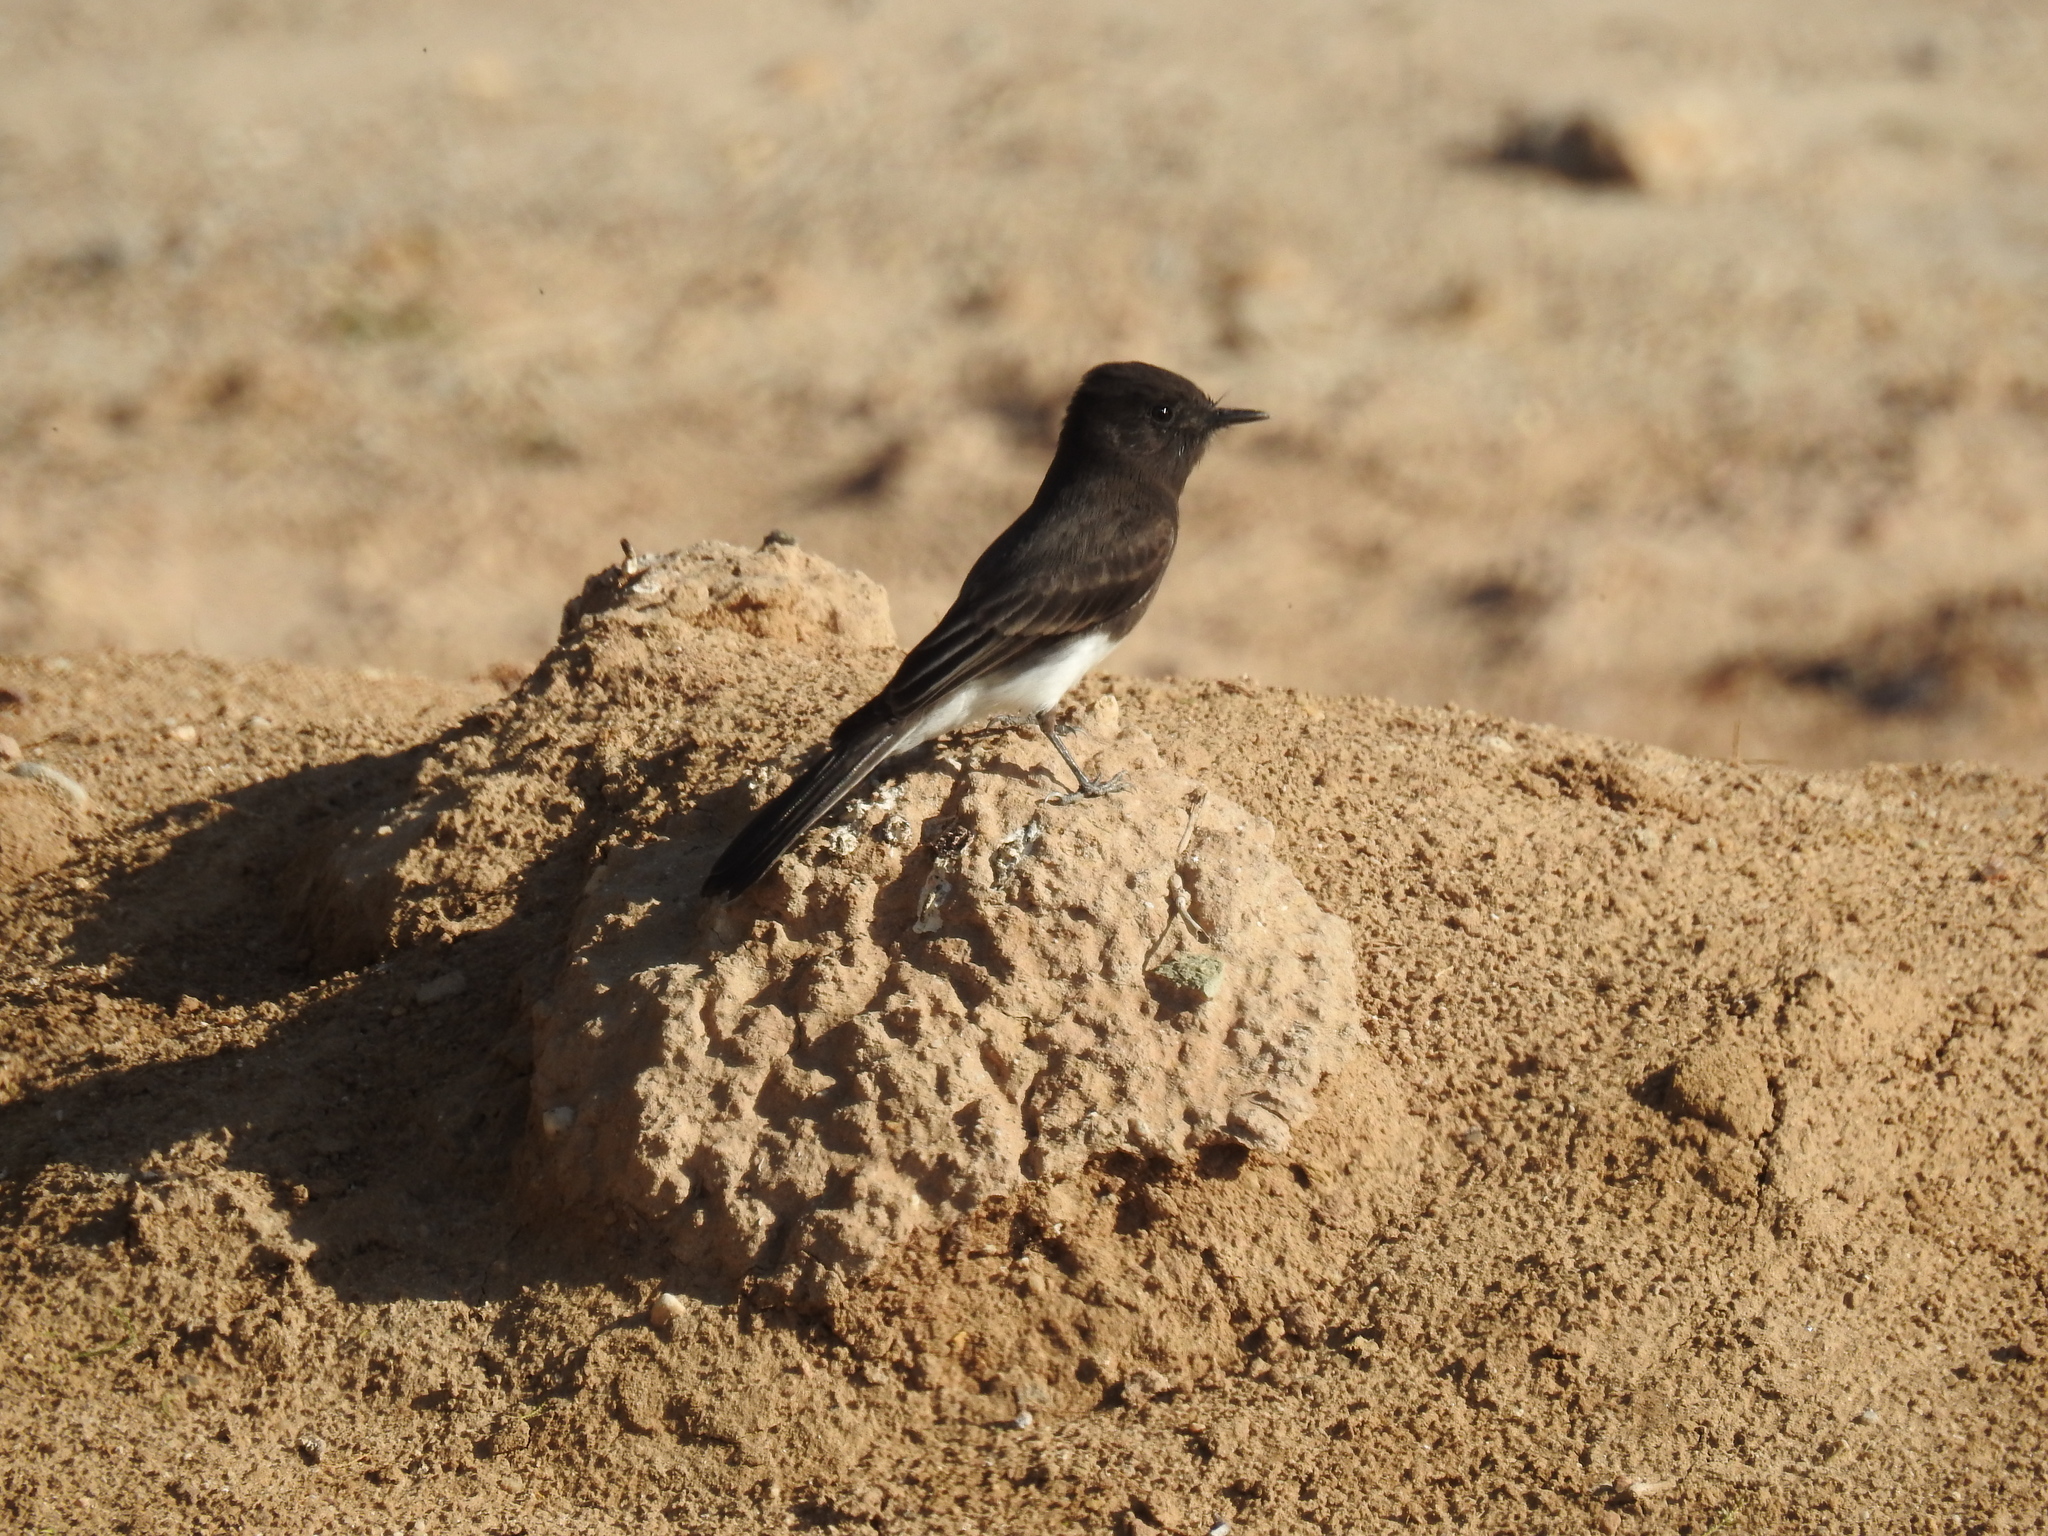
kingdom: Animalia
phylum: Chordata
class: Aves
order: Passeriformes
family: Tyrannidae
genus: Sayornis
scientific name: Sayornis nigricans
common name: Black phoebe
